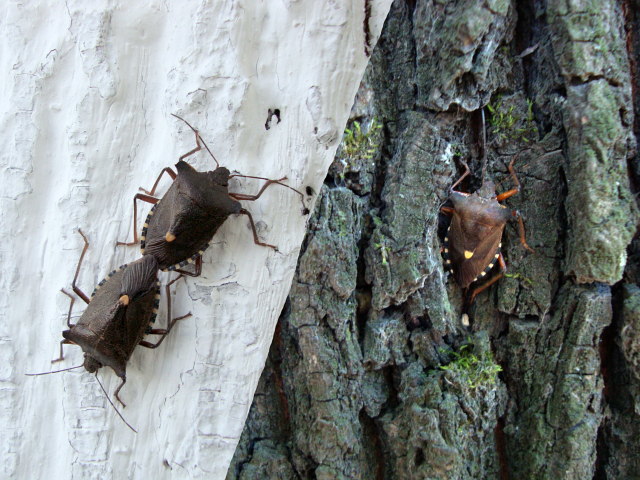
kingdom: Animalia
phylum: Arthropoda
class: Insecta
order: Hemiptera
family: Pentatomidae
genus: Pentatoma
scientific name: Pentatoma rufipes
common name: Forest bug
